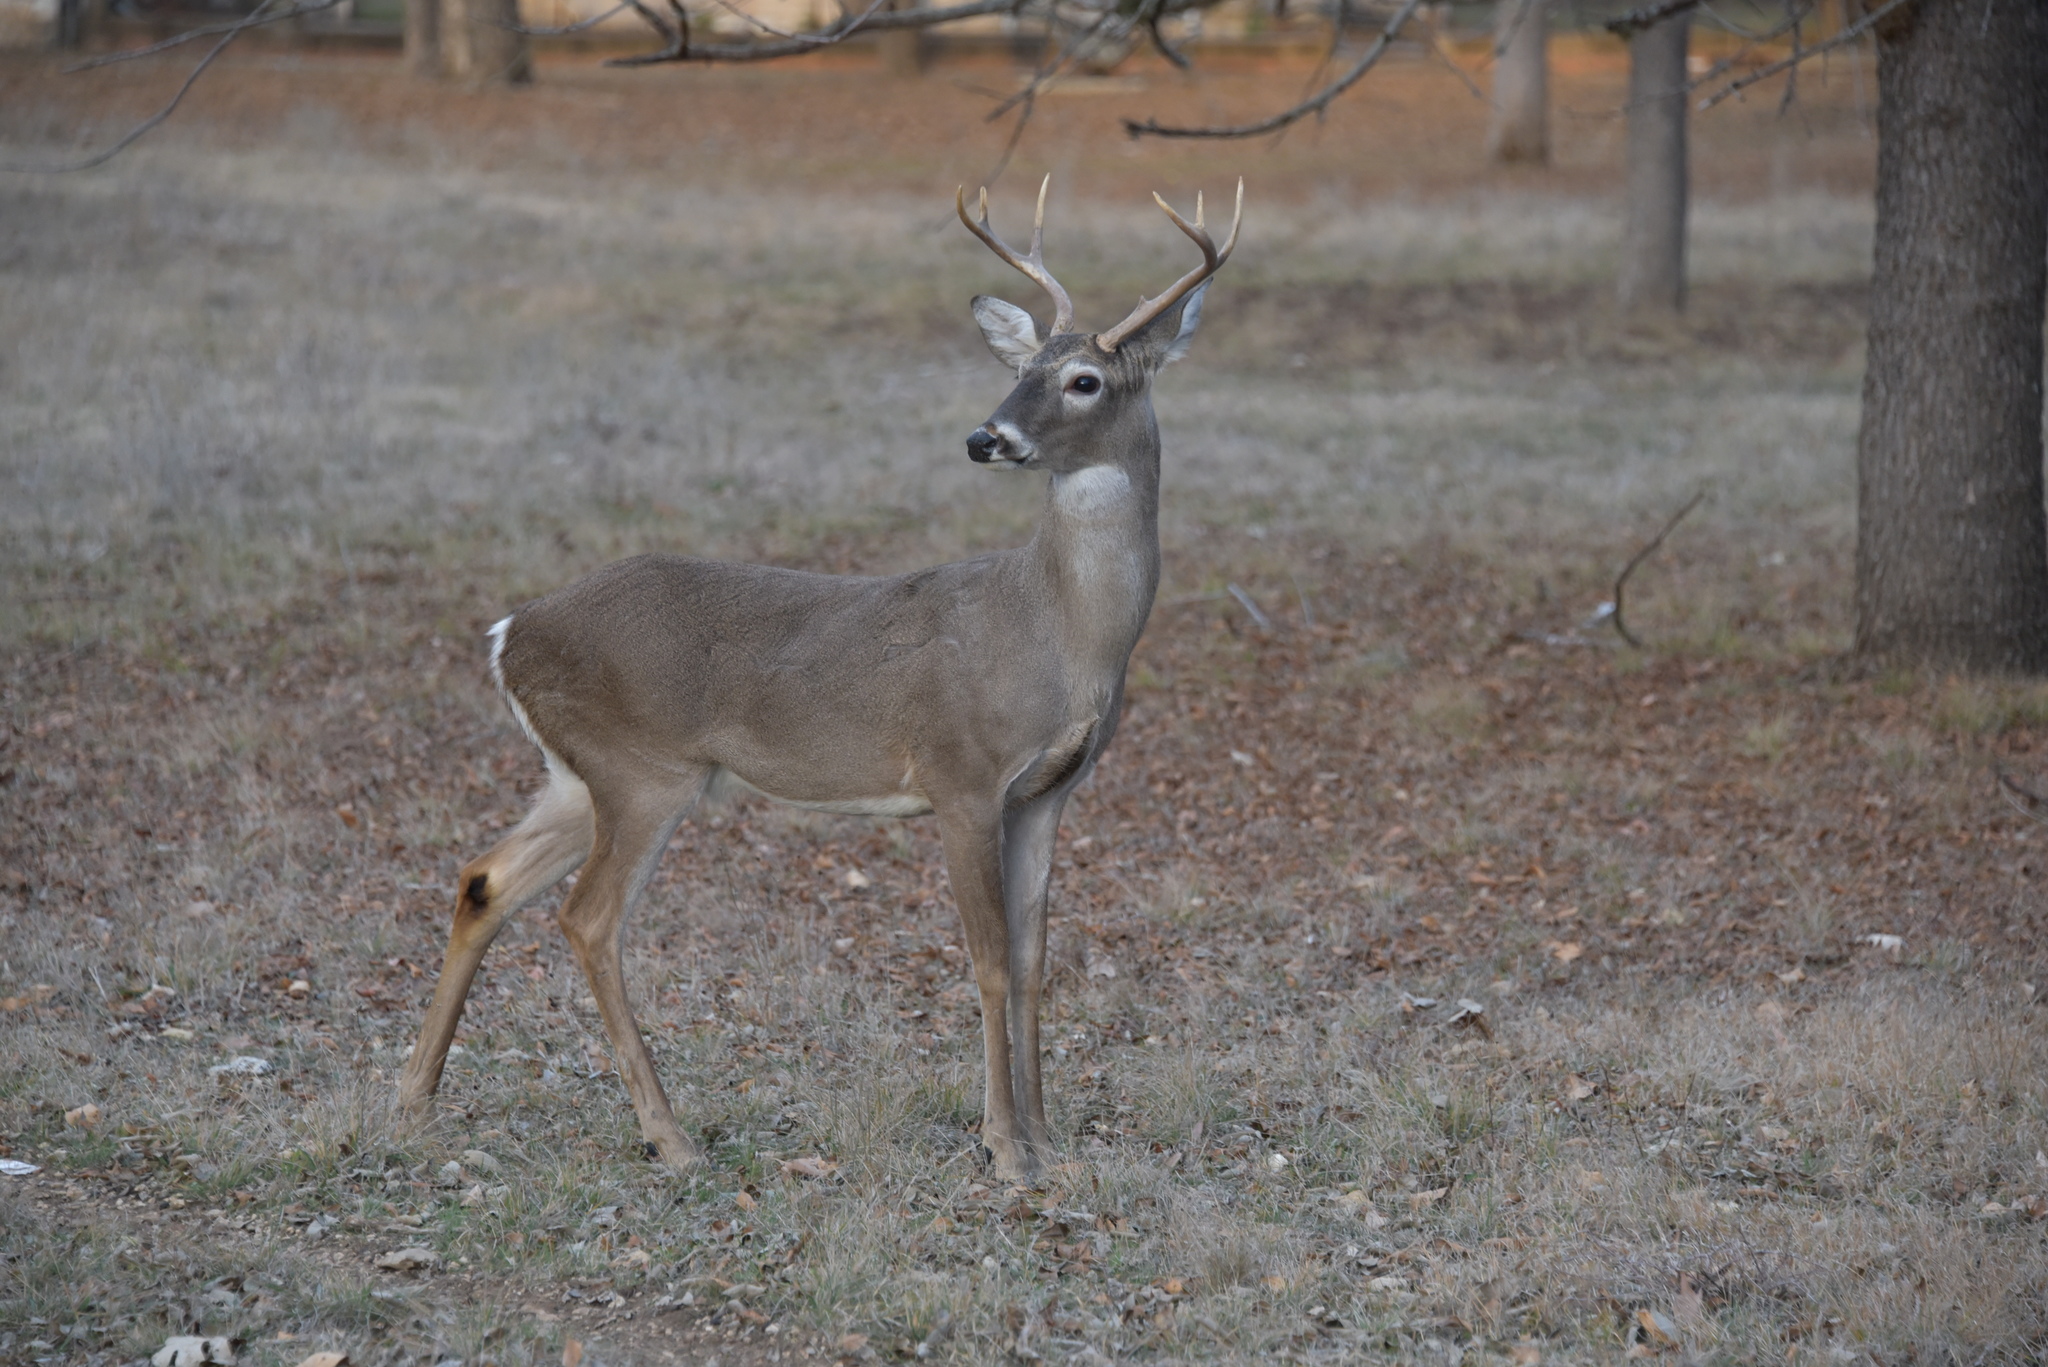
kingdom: Animalia
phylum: Chordata
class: Mammalia
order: Artiodactyla
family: Cervidae
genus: Odocoileus
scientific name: Odocoileus virginianus
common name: White-tailed deer
